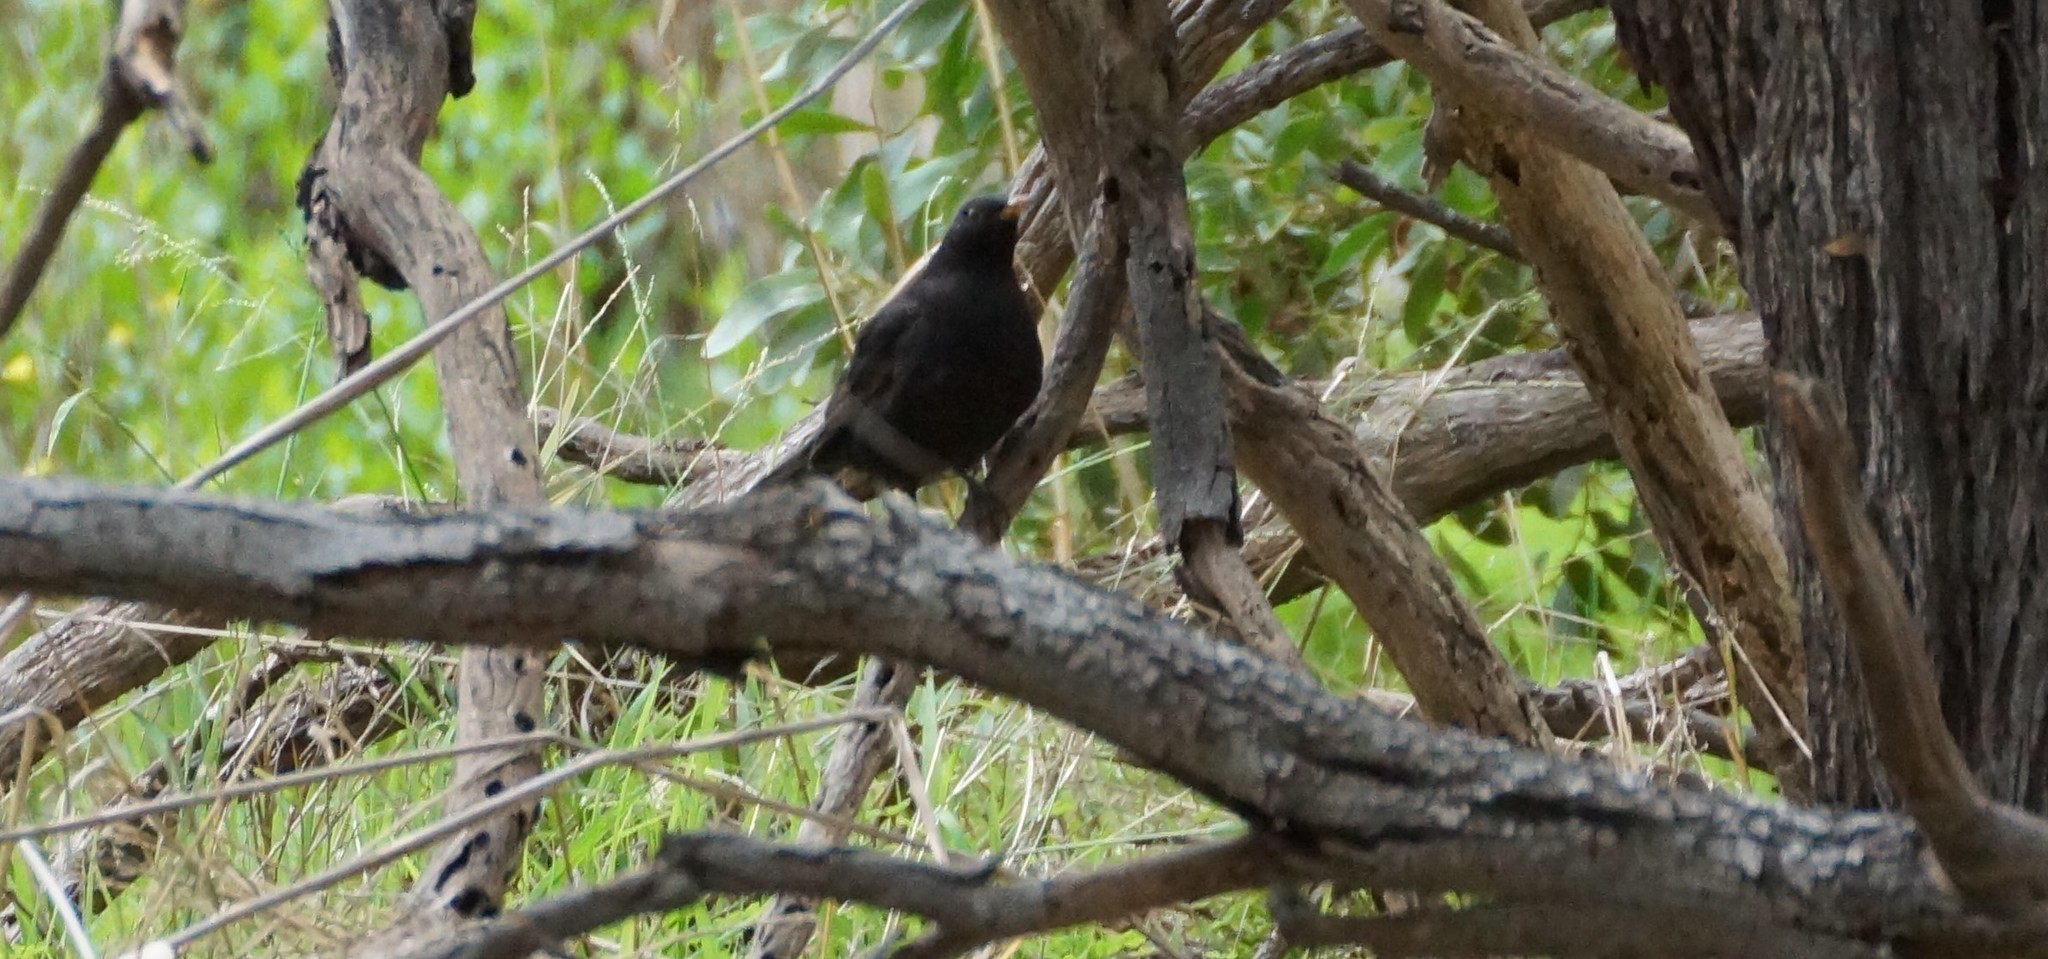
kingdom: Animalia
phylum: Chordata
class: Aves
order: Passeriformes
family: Turdidae
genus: Turdus
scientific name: Turdus merula
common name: Common blackbird
